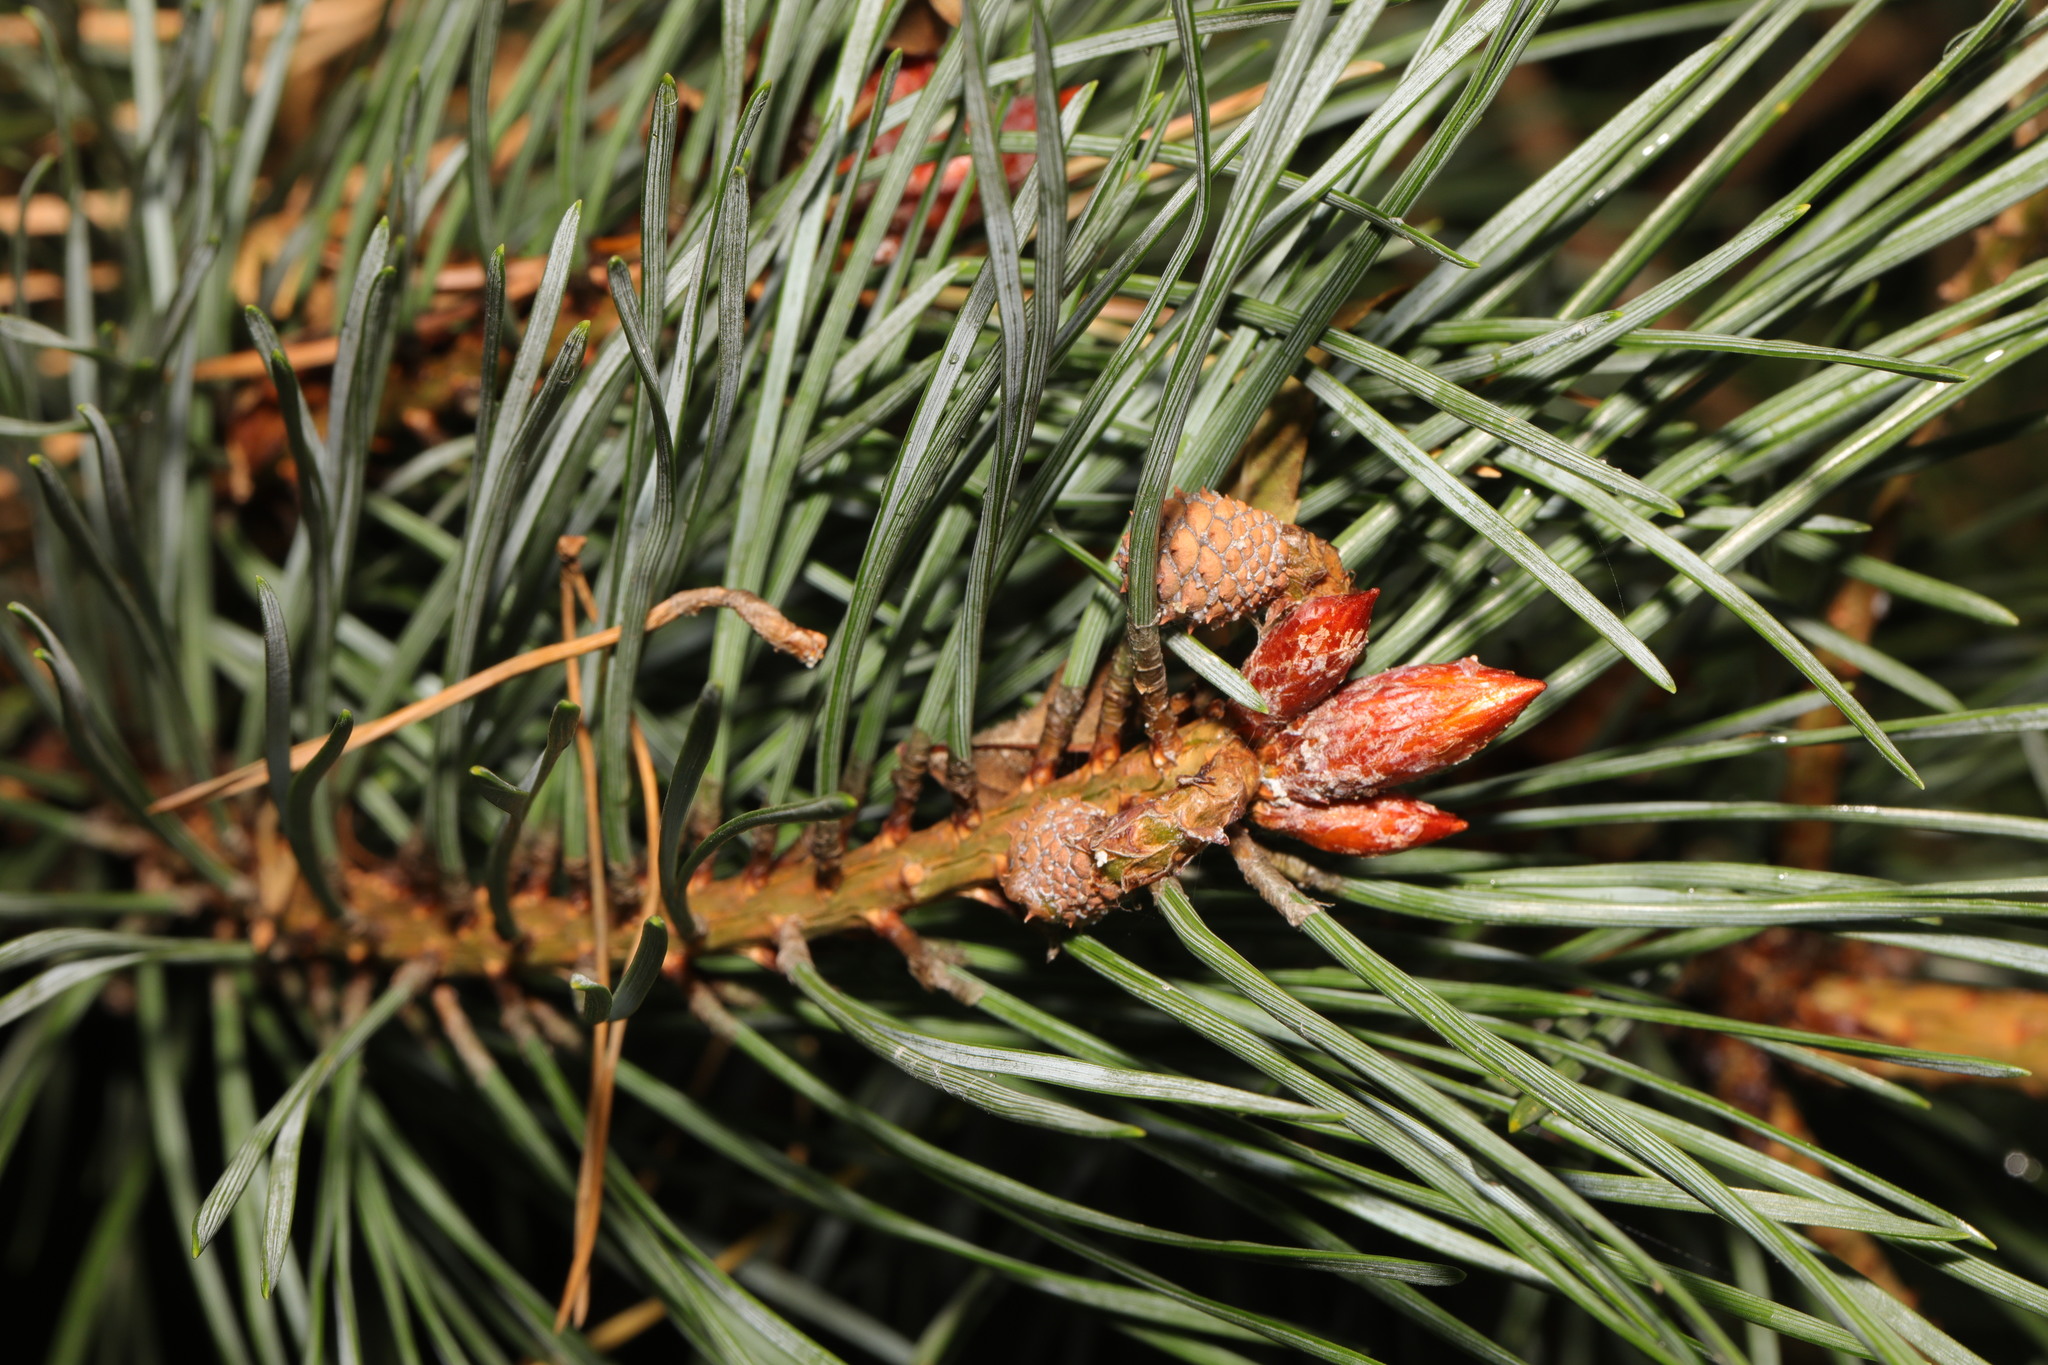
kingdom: Plantae
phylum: Tracheophyta
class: Pinopsida
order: Pinales
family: Pinaceae
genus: Pinus
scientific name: Pinus sylvestris
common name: Scots pine
